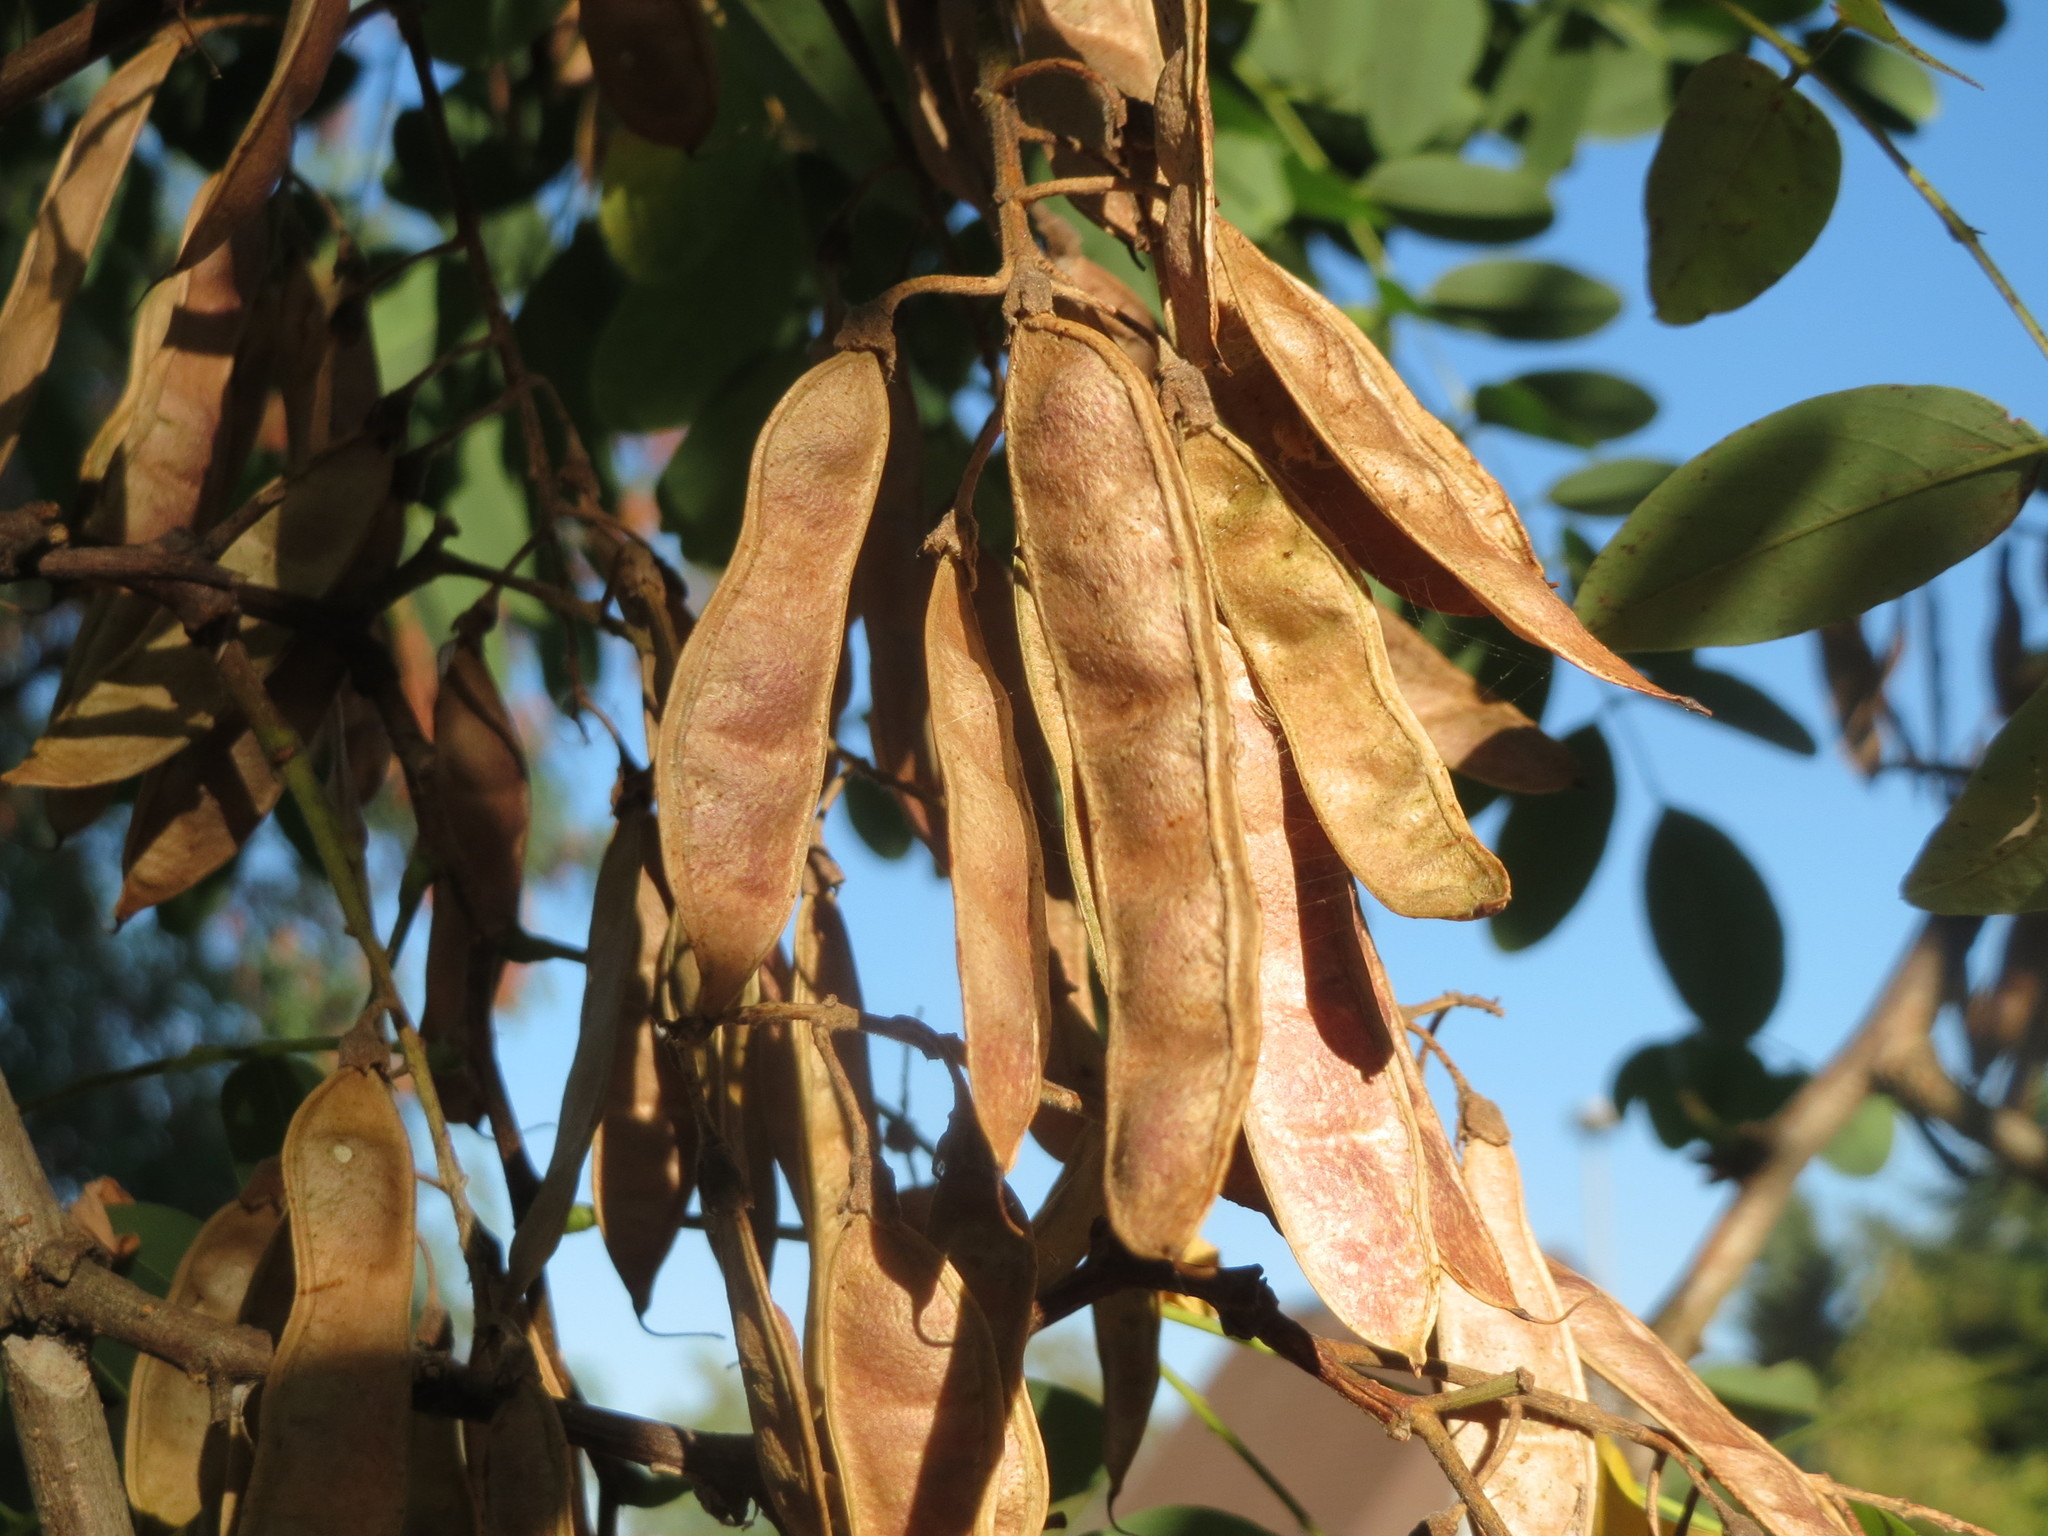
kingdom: Plantae
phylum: Tracheophyta
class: Magnoliopsida
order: Fabales
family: Fabaceae
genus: Robinia
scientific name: Robinia pseudoacacia
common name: Black locust
